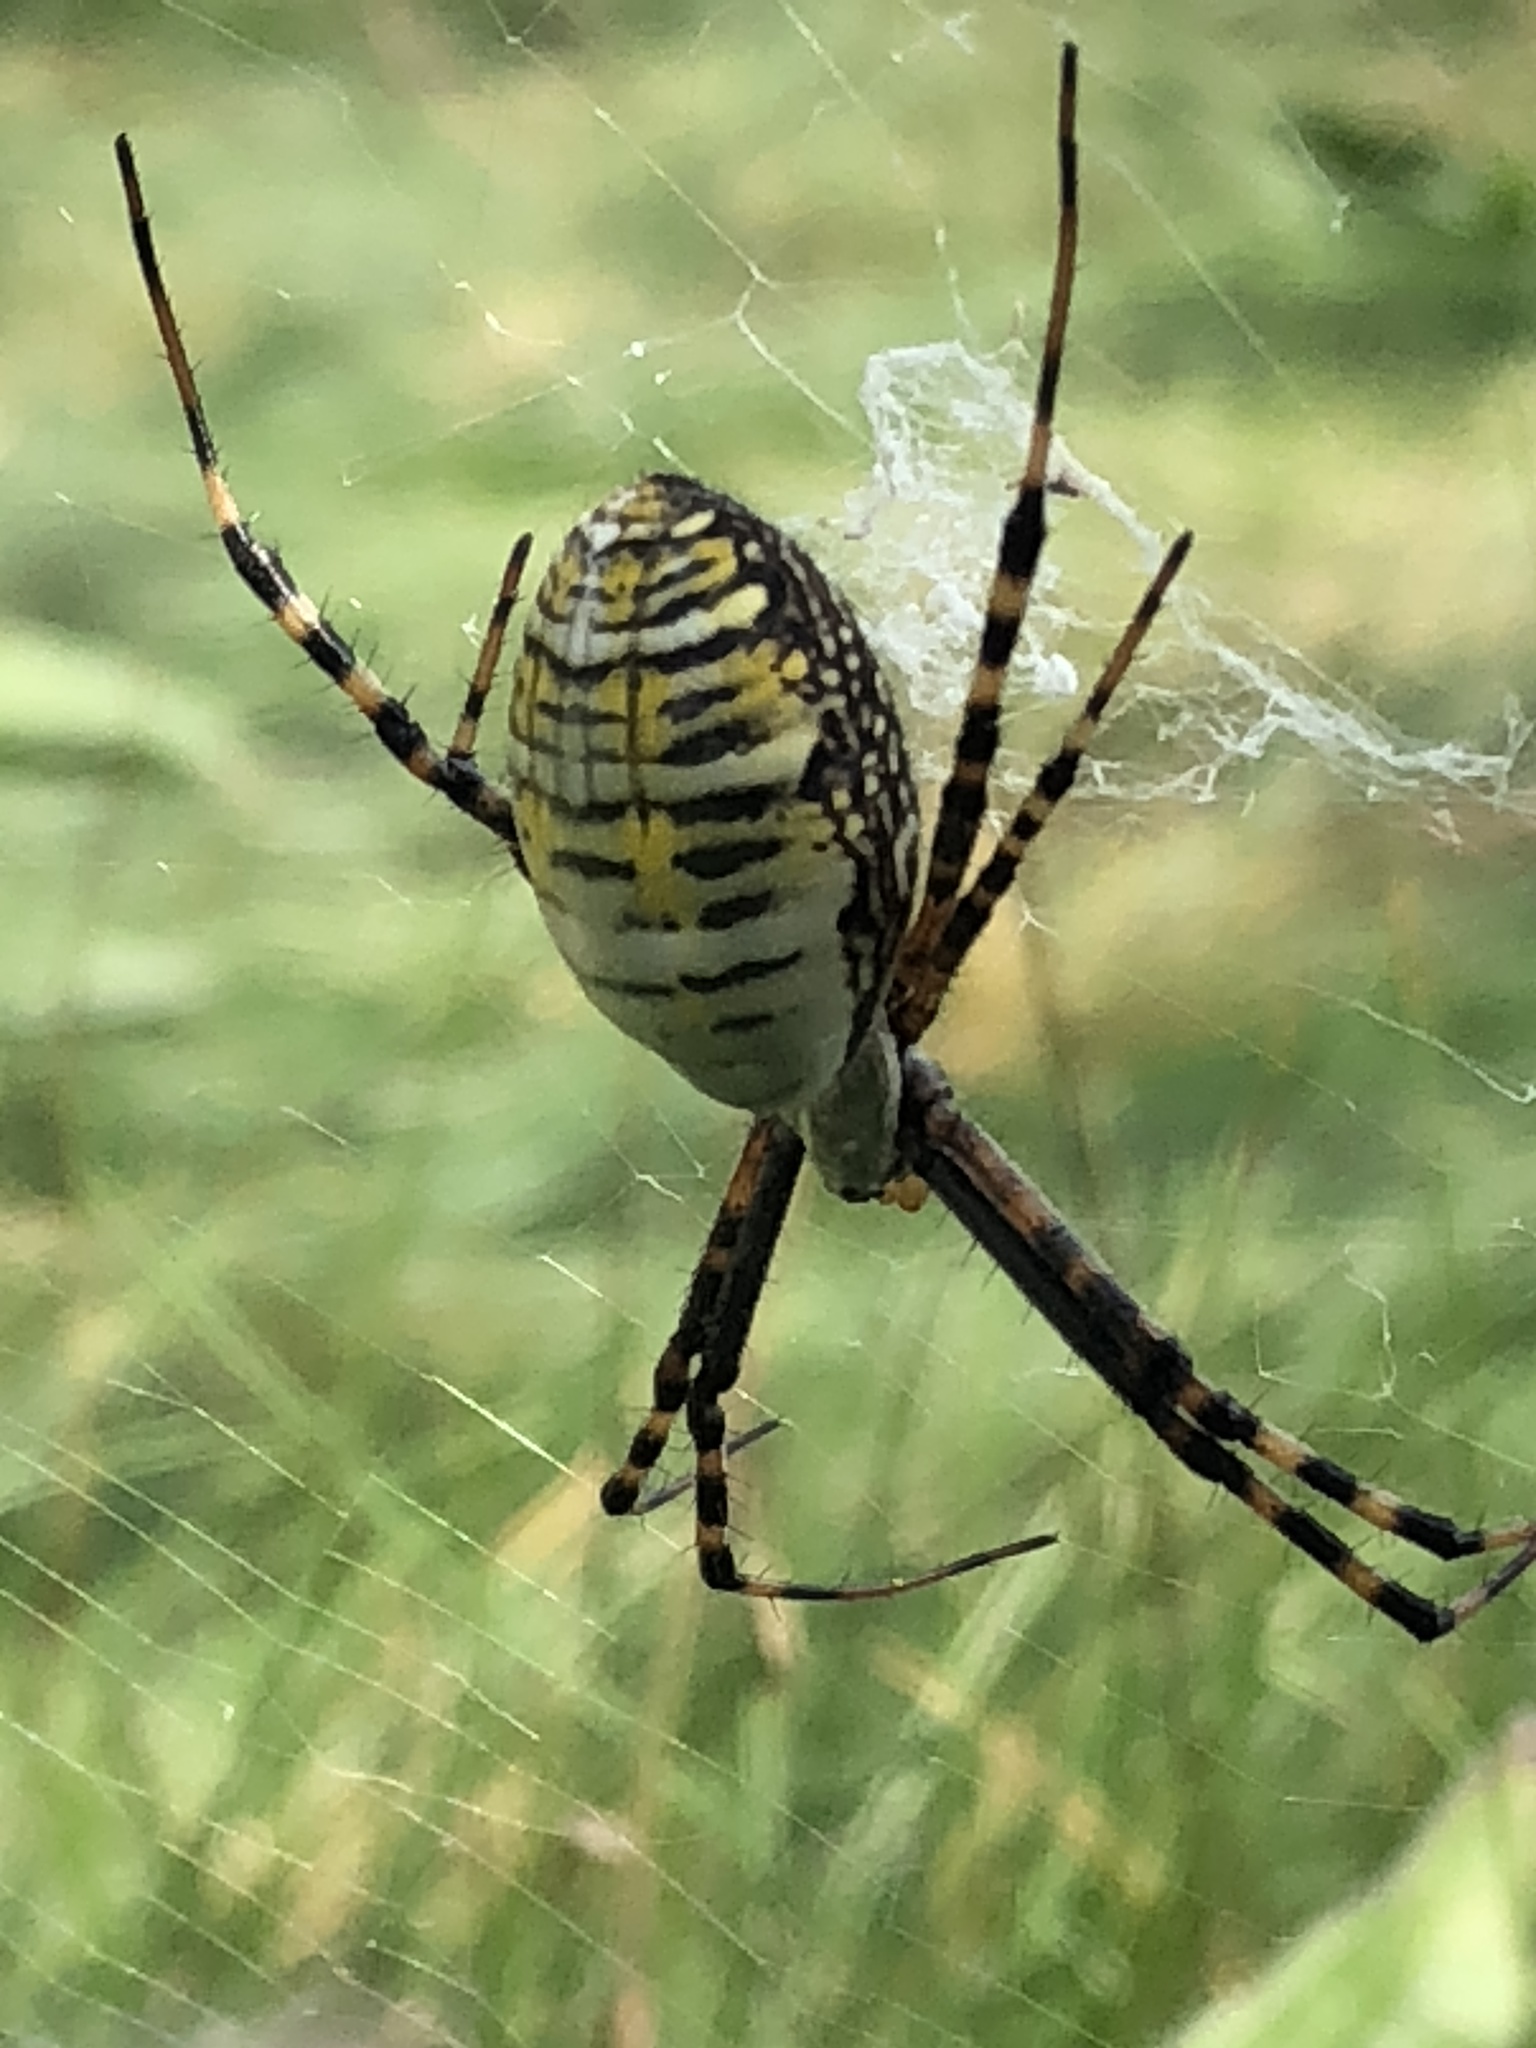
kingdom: Animalia
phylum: Arthropoda
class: Arachnida
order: Araneae
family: Araneidae
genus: Argiope
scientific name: Argiope trifasciata
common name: Banded garden spider
